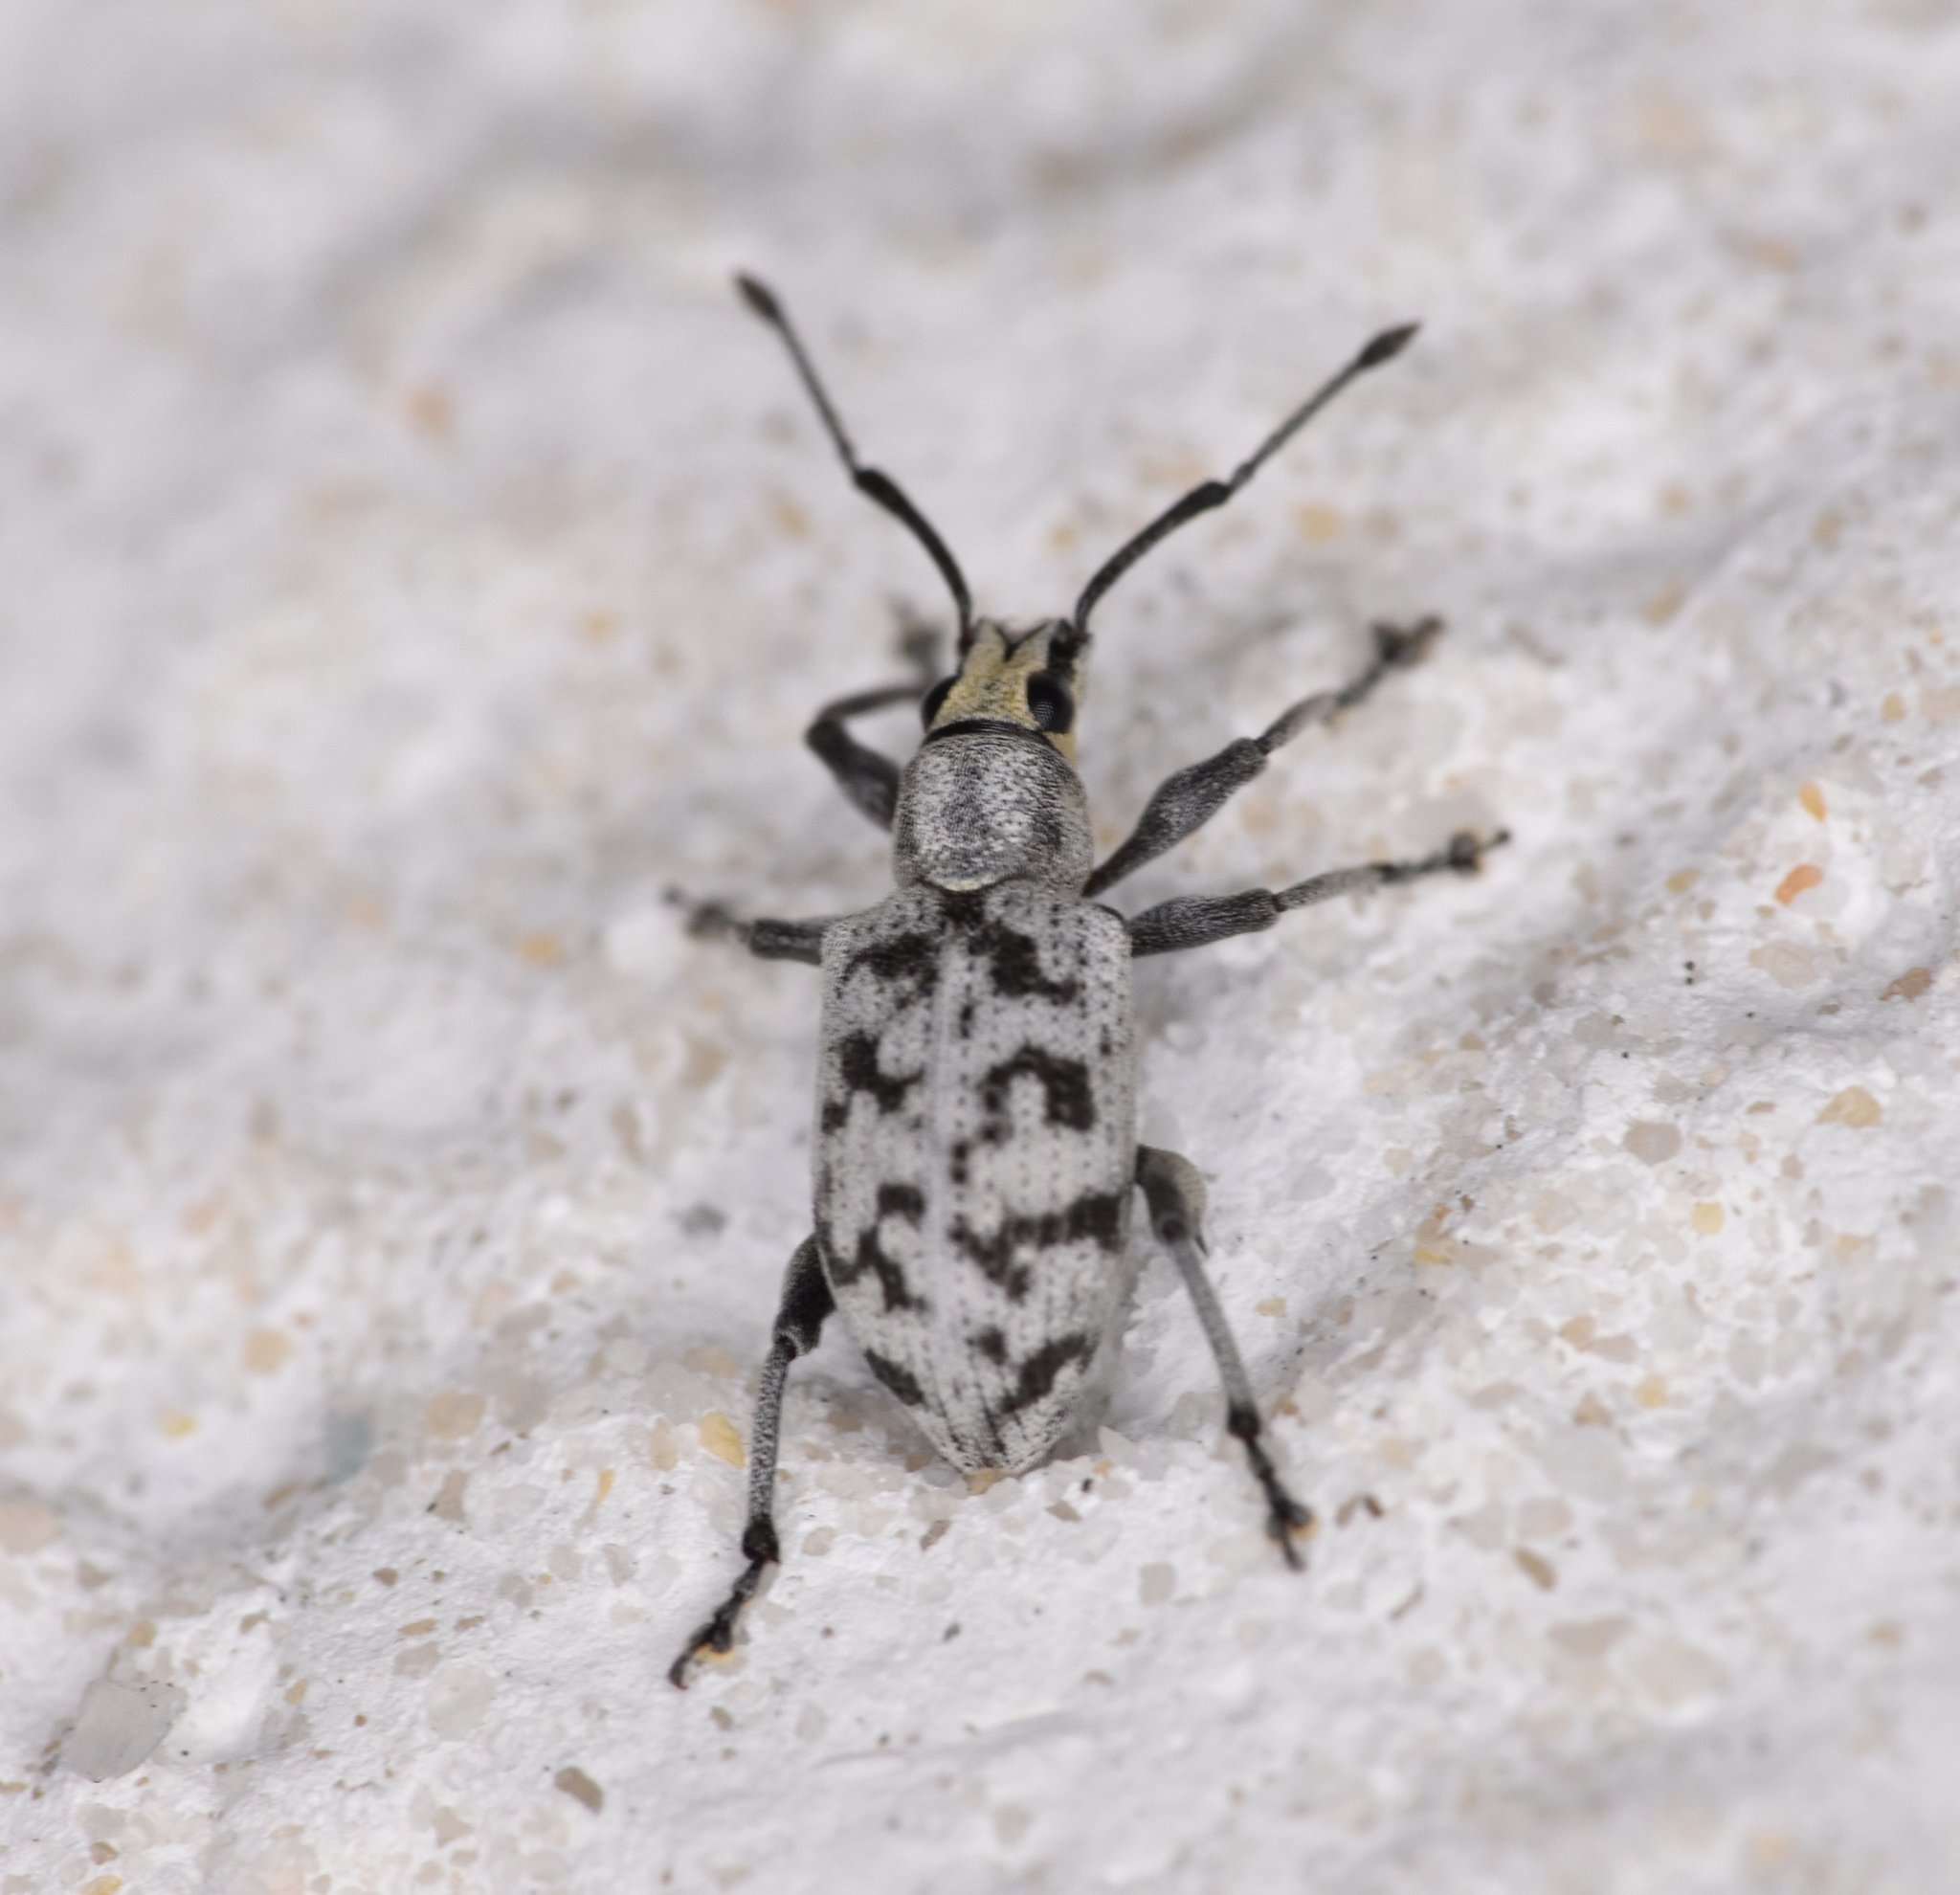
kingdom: Animalia
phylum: Arthropoda
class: Insecta
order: Coleoptera
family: Curculionidae
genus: Myllocerus
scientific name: Myllocerus undecimpustulatus
